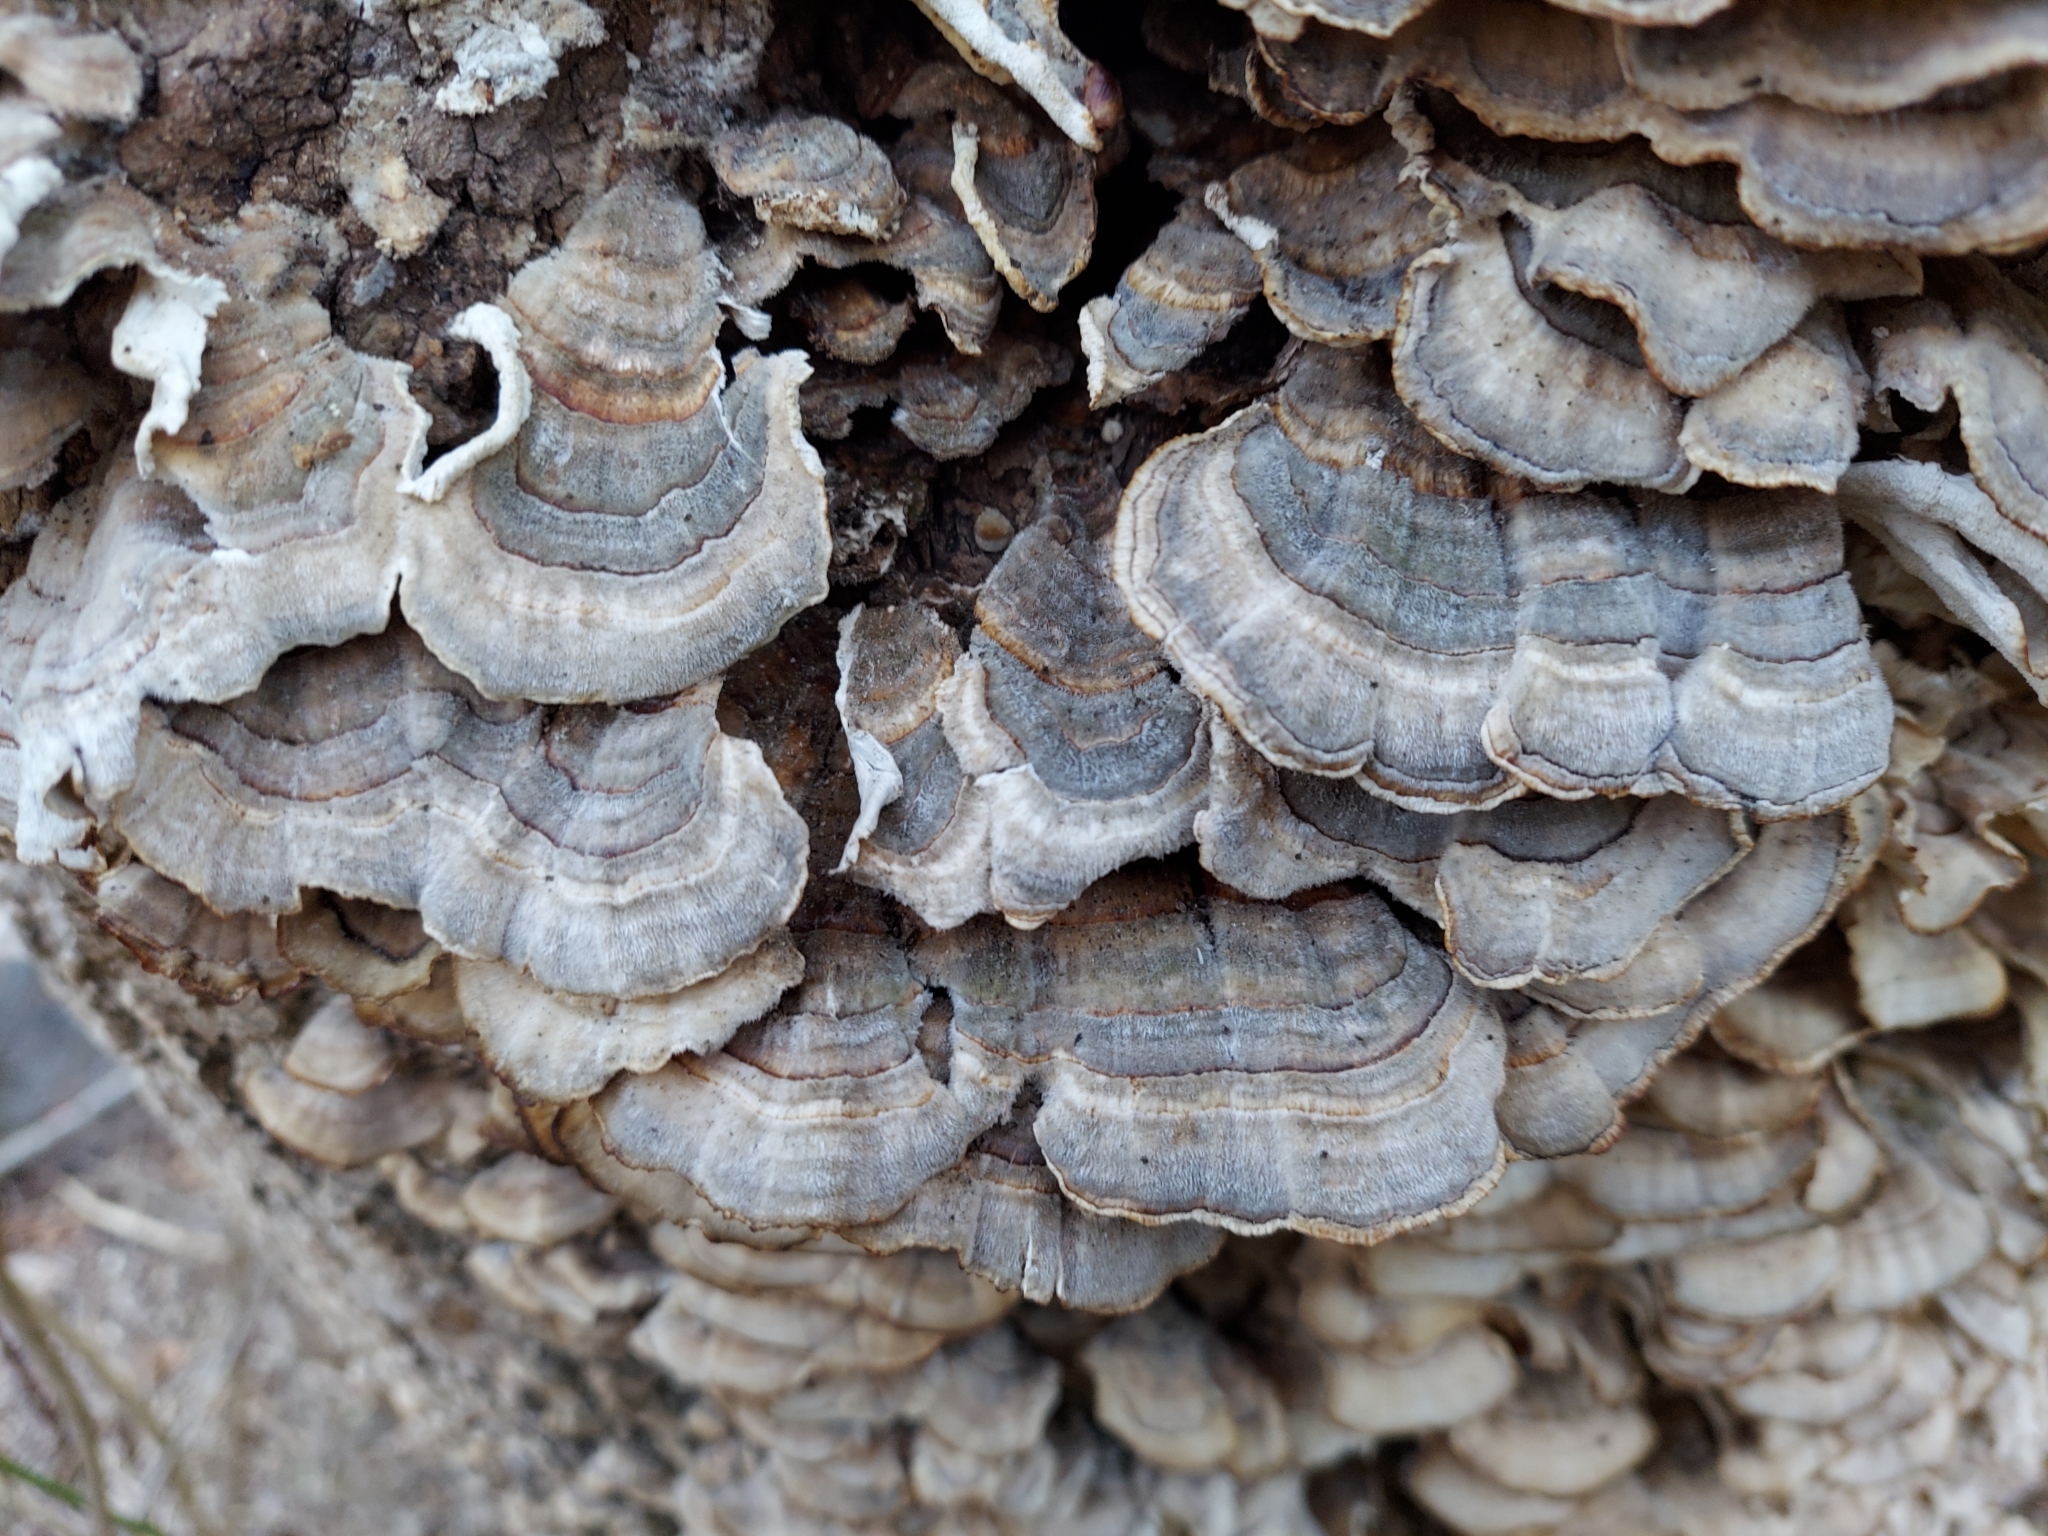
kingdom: Fungi
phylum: Basidiomycota
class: Agaricomycetes
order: Polyporales
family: Polyporaceae
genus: Trametes
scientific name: Trametes versicolor
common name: Turkeytail
